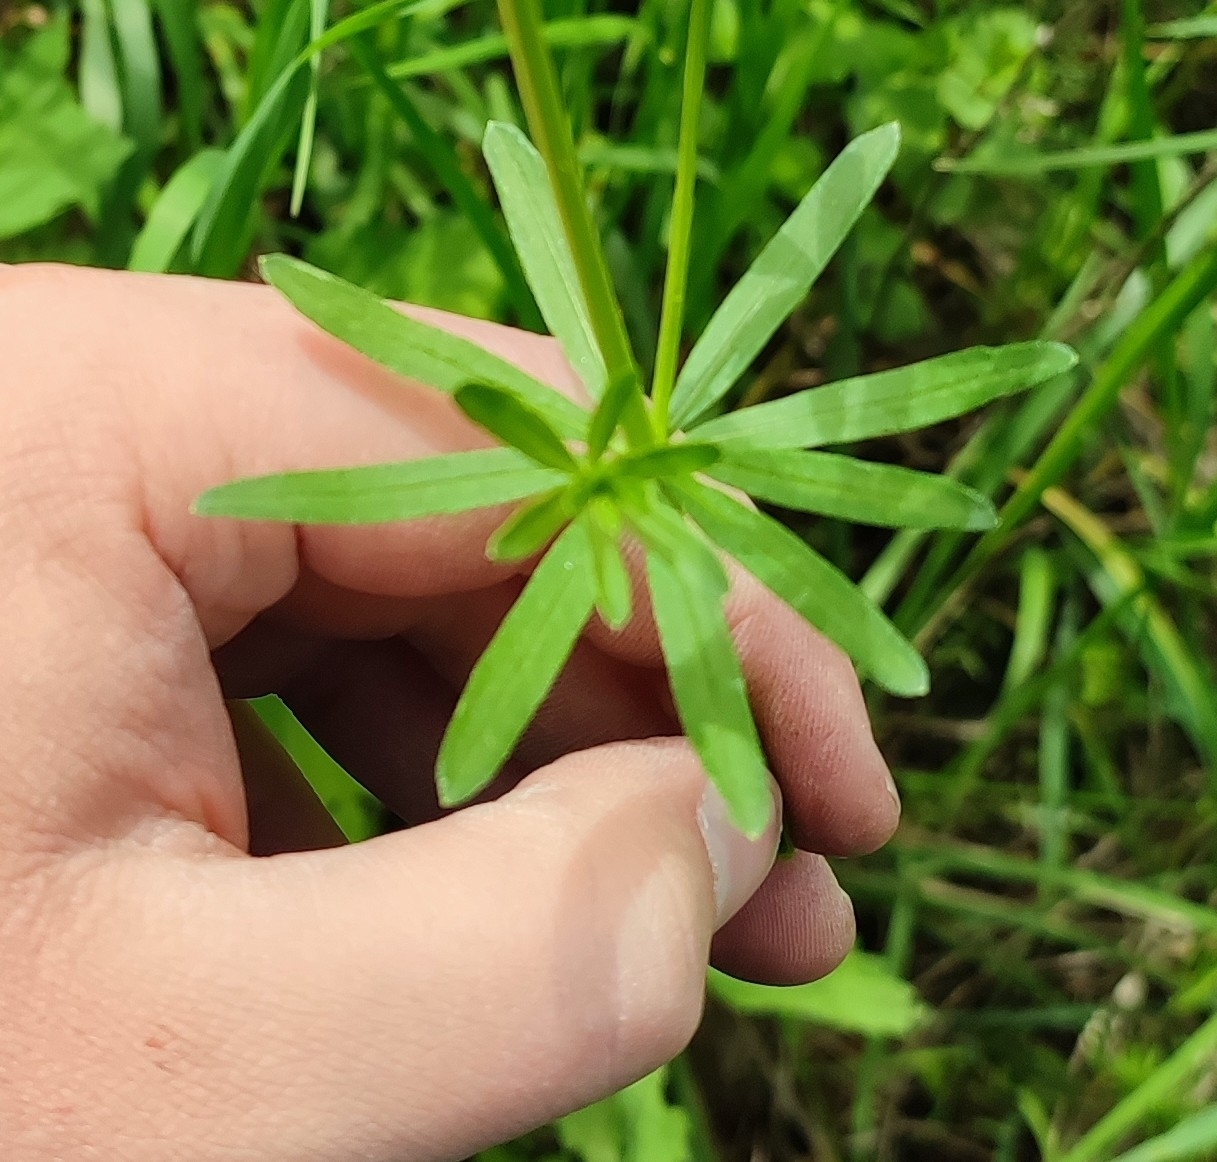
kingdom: Plantae
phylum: Tracheophyta
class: Magnoliopsida
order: Gentianales
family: Rubiaceae
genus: Galium
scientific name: Galium mollugo
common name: Hedge bedstraw
